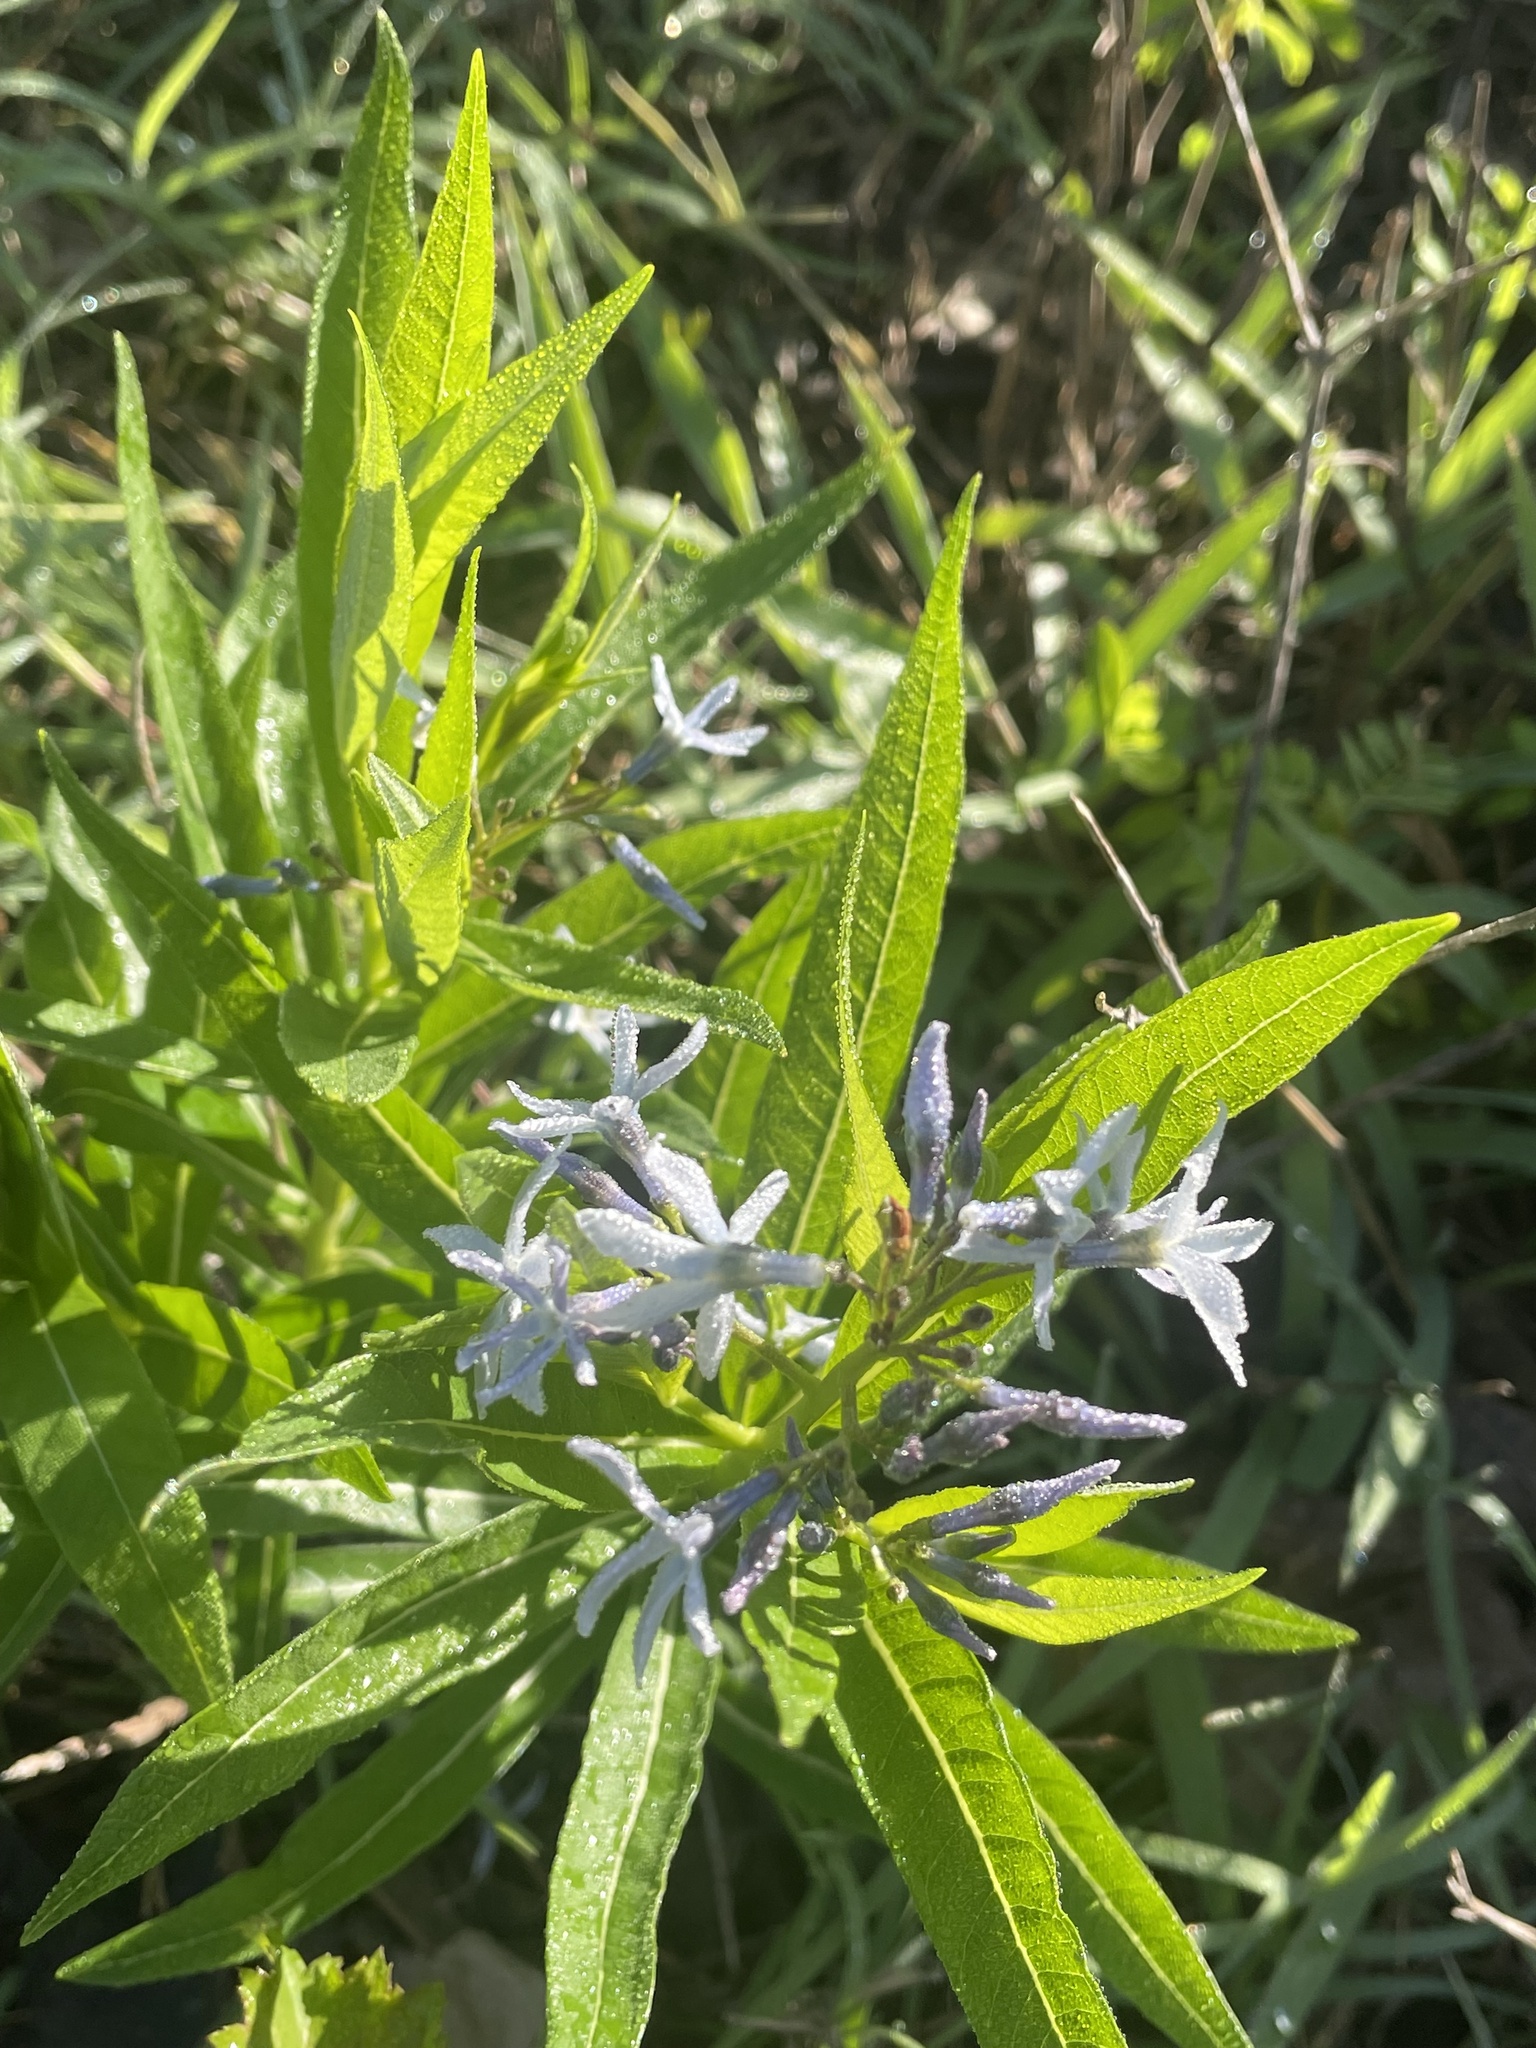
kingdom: Plantae
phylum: Tracheophyta
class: Magnoliopsida
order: Gentianales
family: Apocynaceae
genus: Amsonia
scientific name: Amsonia tabernaemontana
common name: Texas-star
